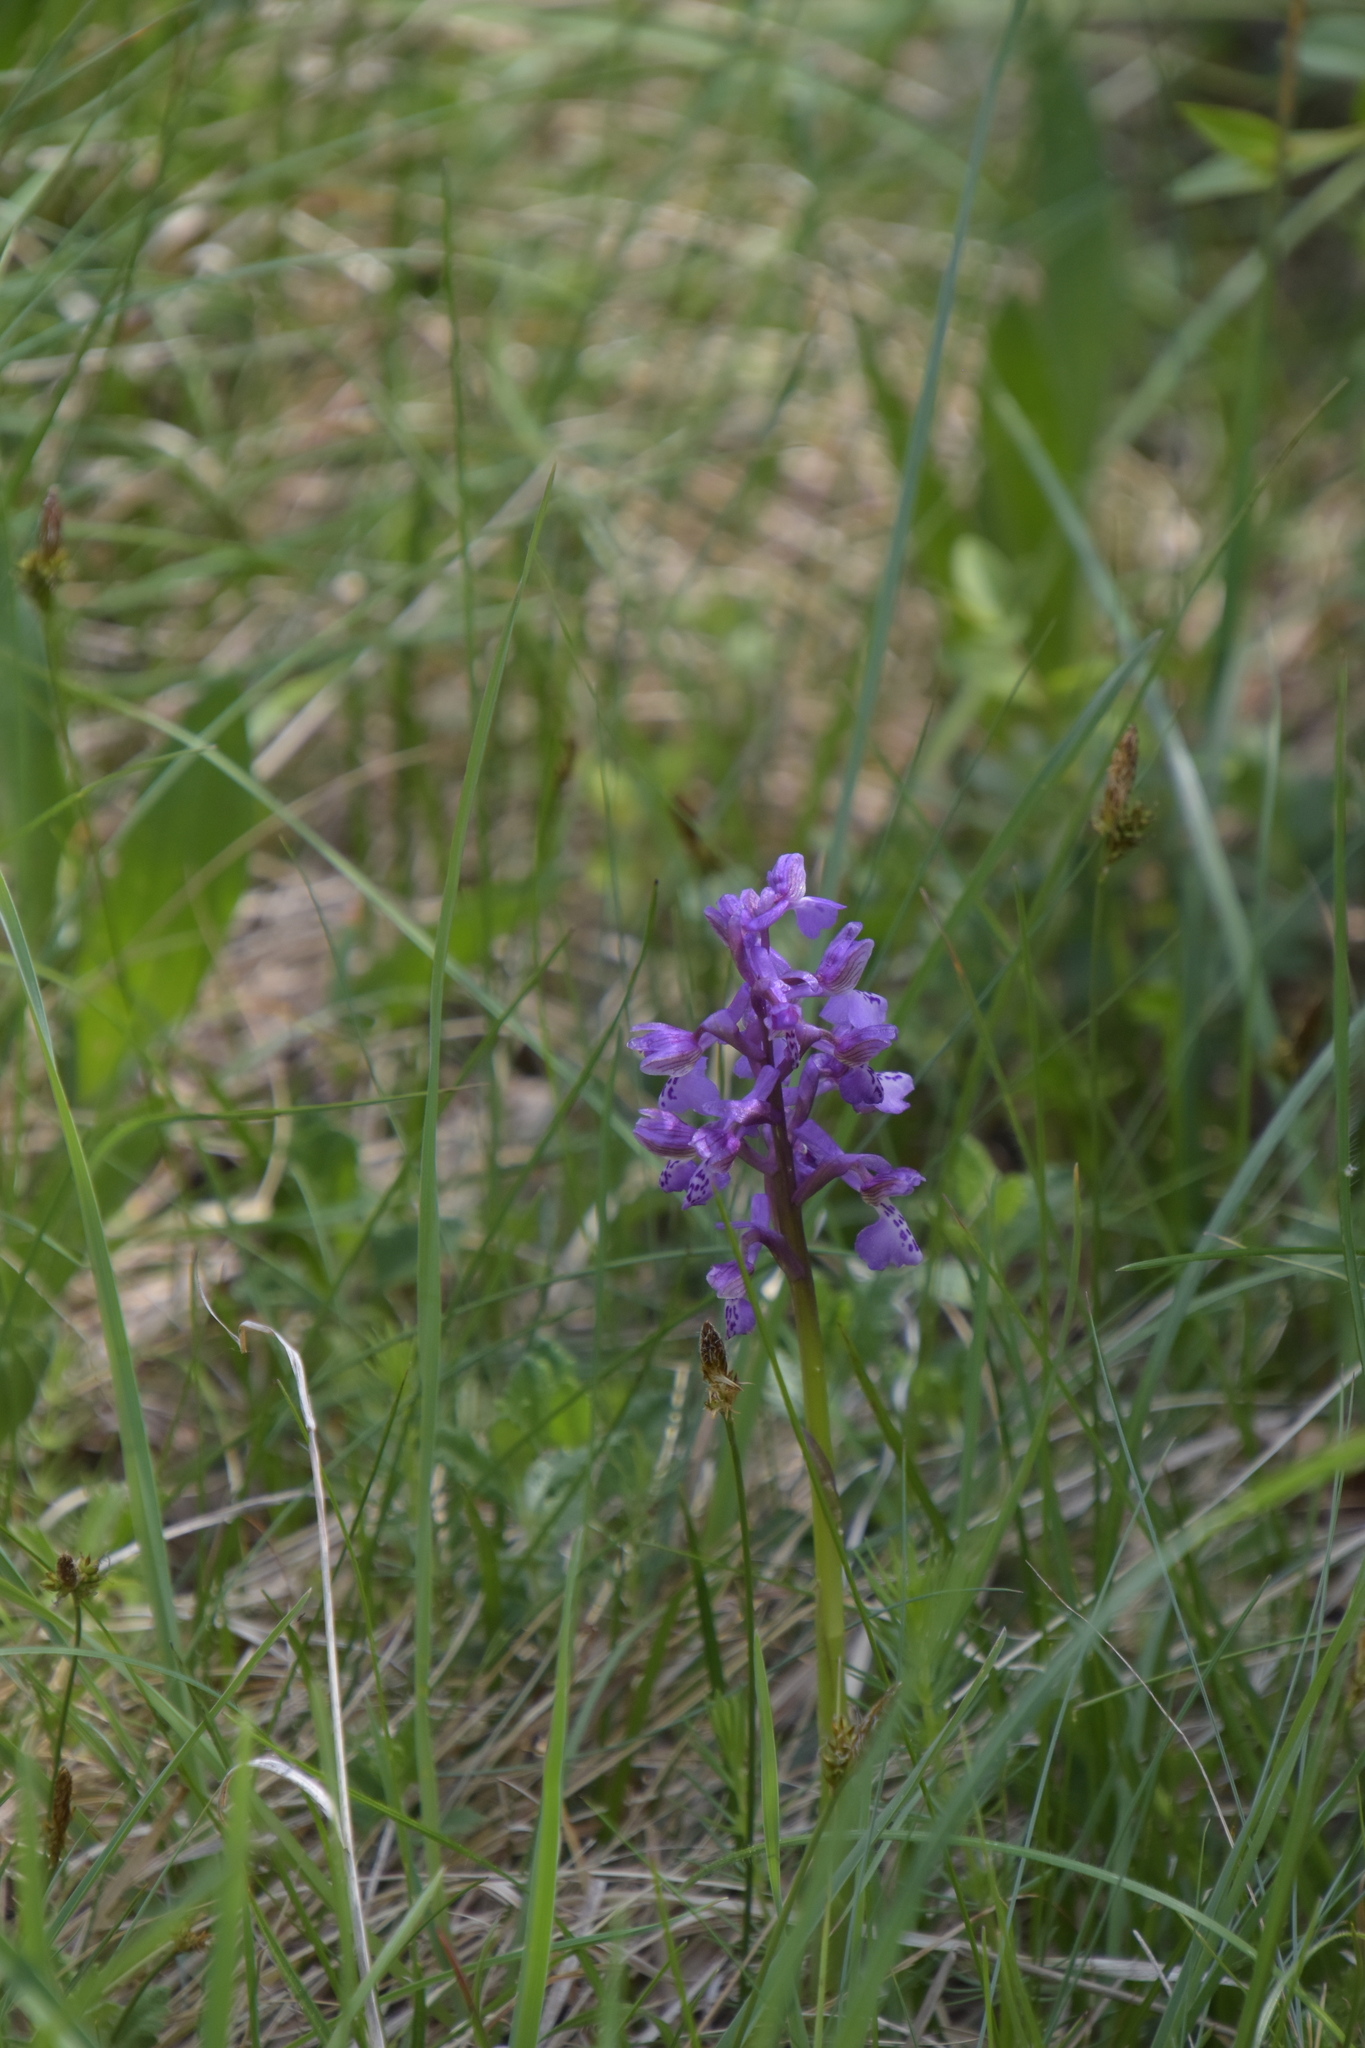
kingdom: Plantae
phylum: Tracheophyta
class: Liliopsida
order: Asparagales
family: Orchidaceae
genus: Anacamptis
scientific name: Anacamptis morio
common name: Green-winged orchid
